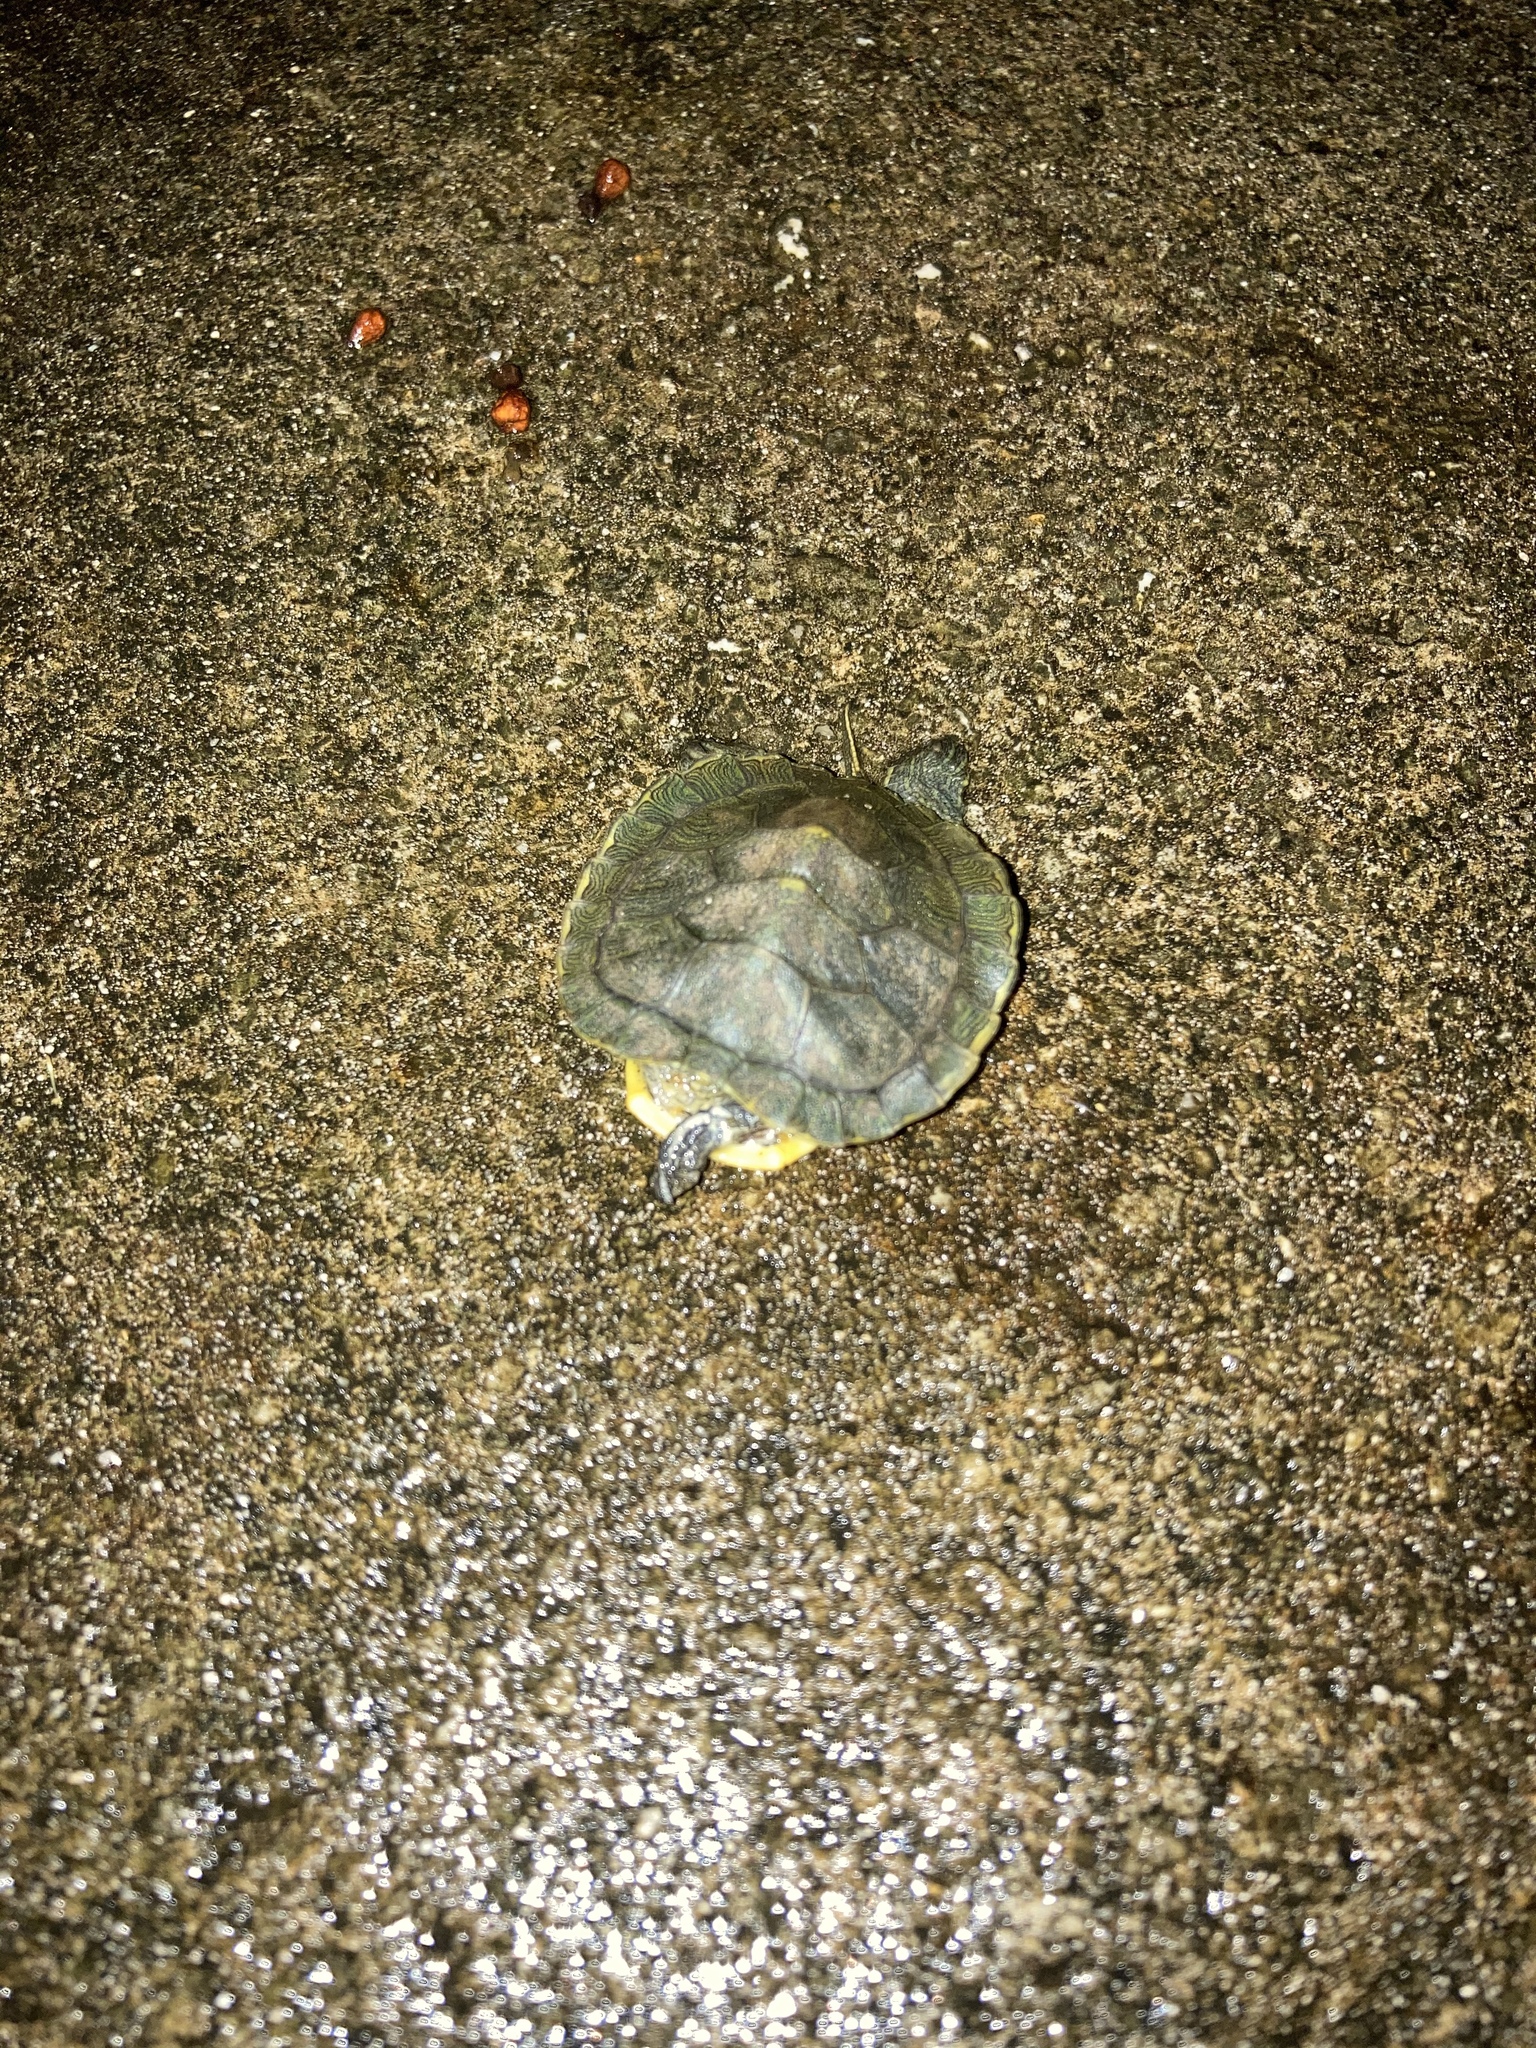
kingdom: Animalia
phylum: Chordata
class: Testudines
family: Emydidae
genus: Trachemys
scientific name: Trachemys scripta
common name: Slider
